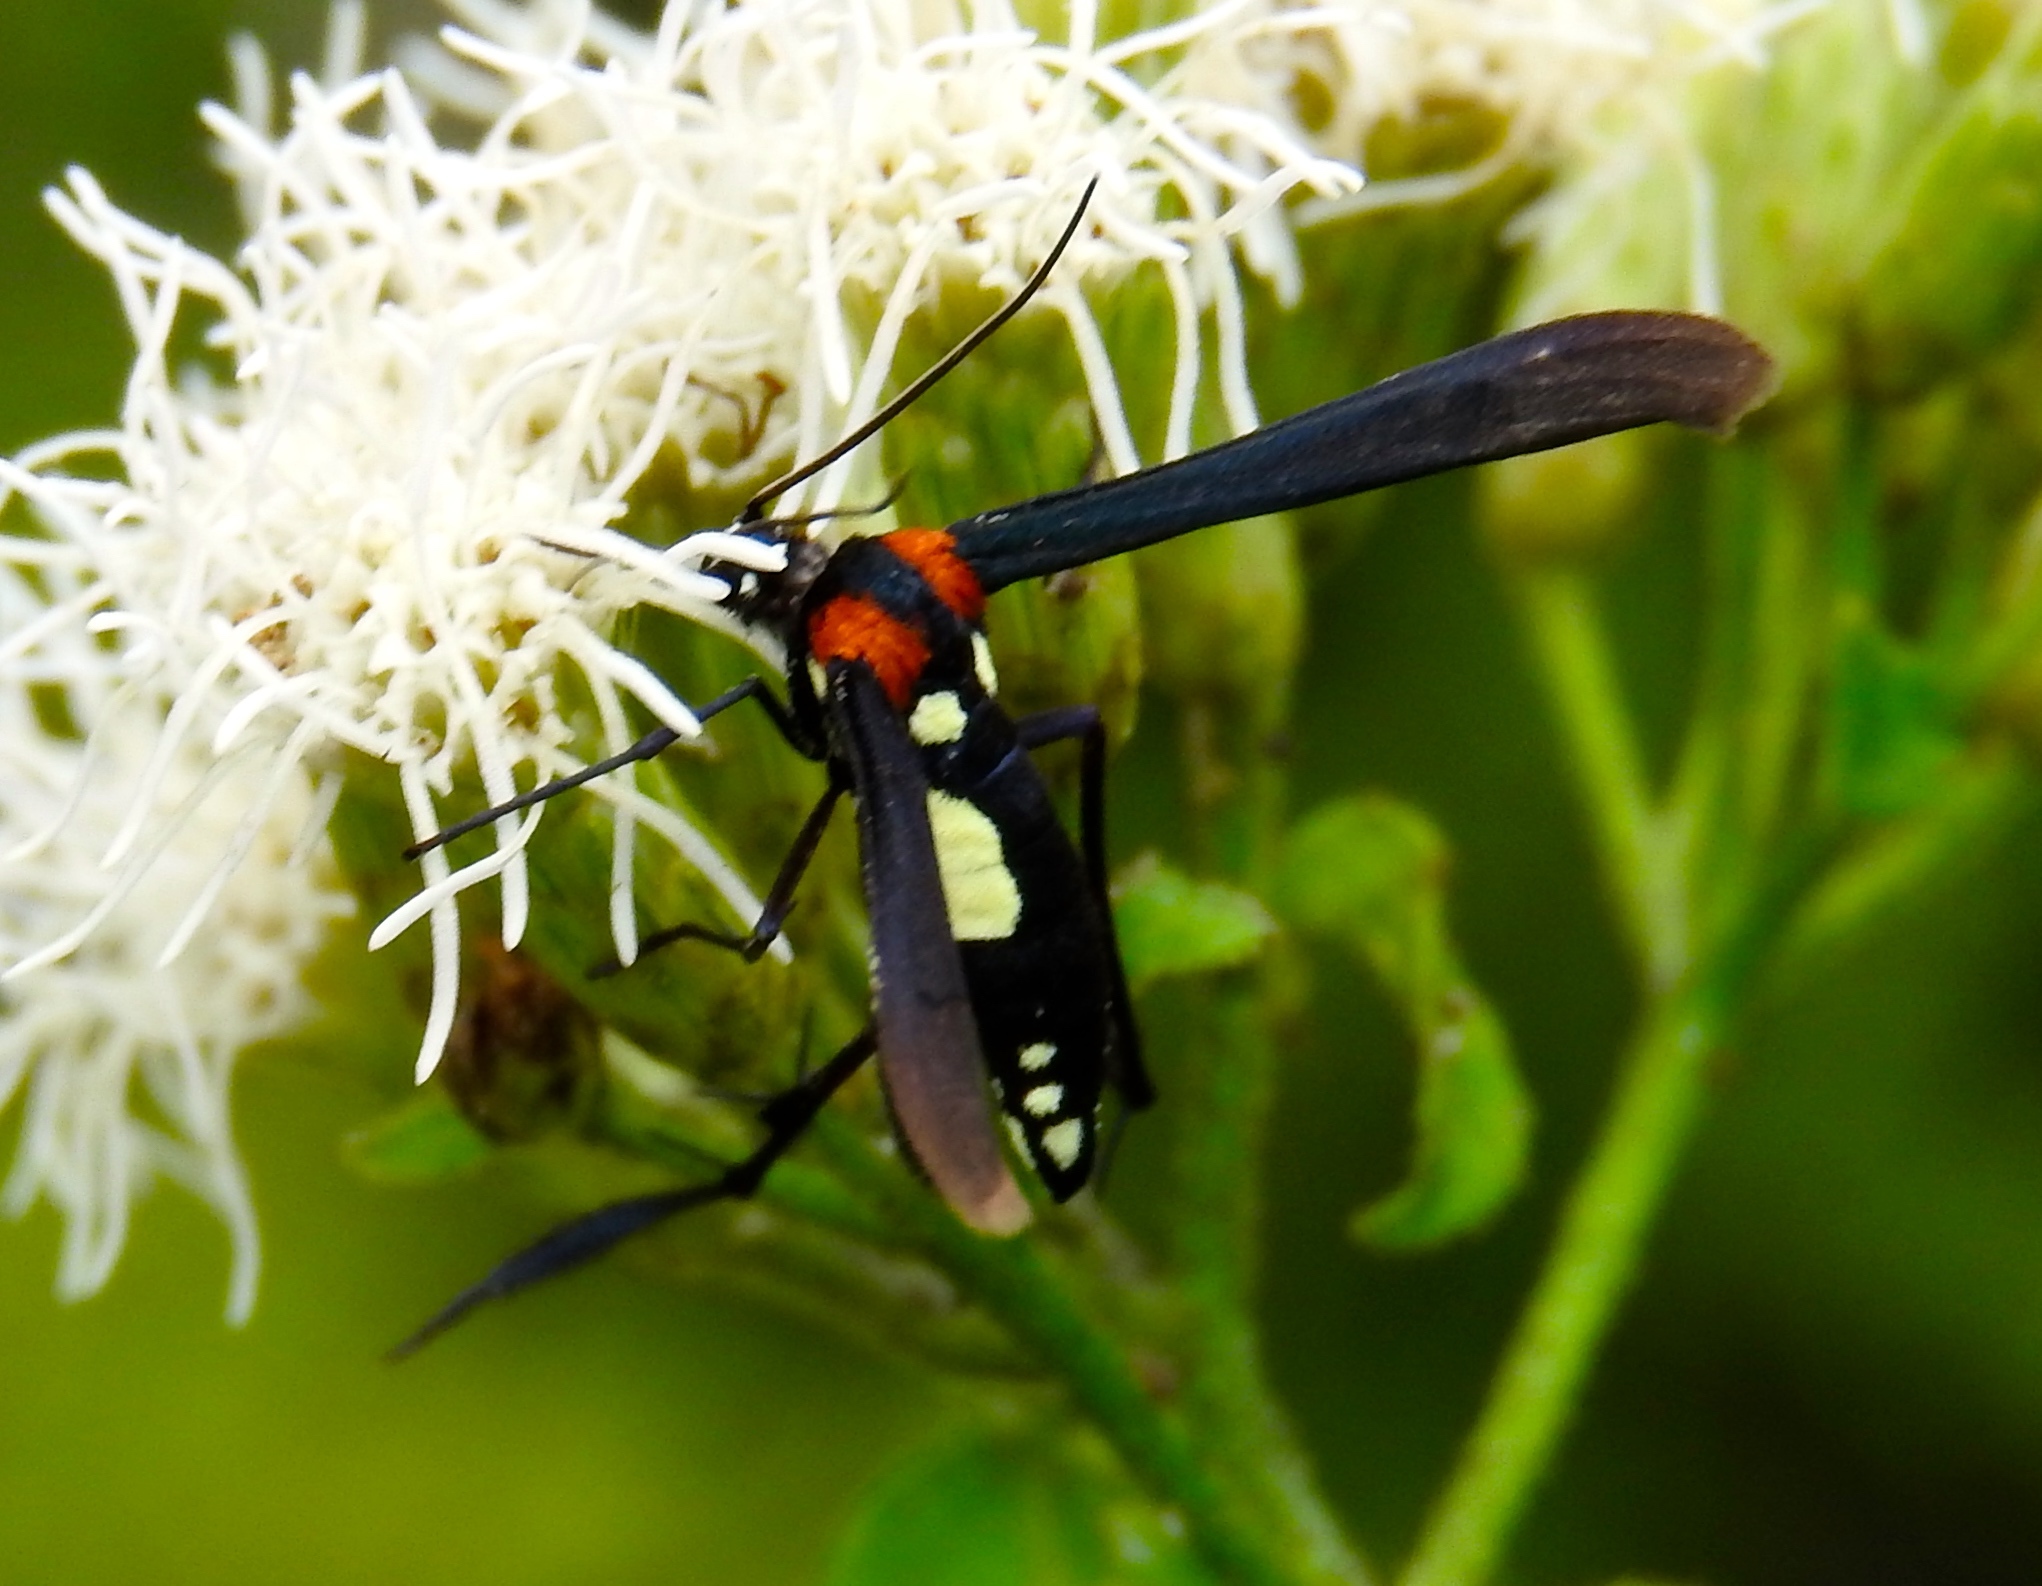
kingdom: Animalia
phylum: Arthropoda
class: Insecta
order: Lepidoptera
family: Pterophoridae
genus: Hellinsia
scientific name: Hellinsia chamelai
